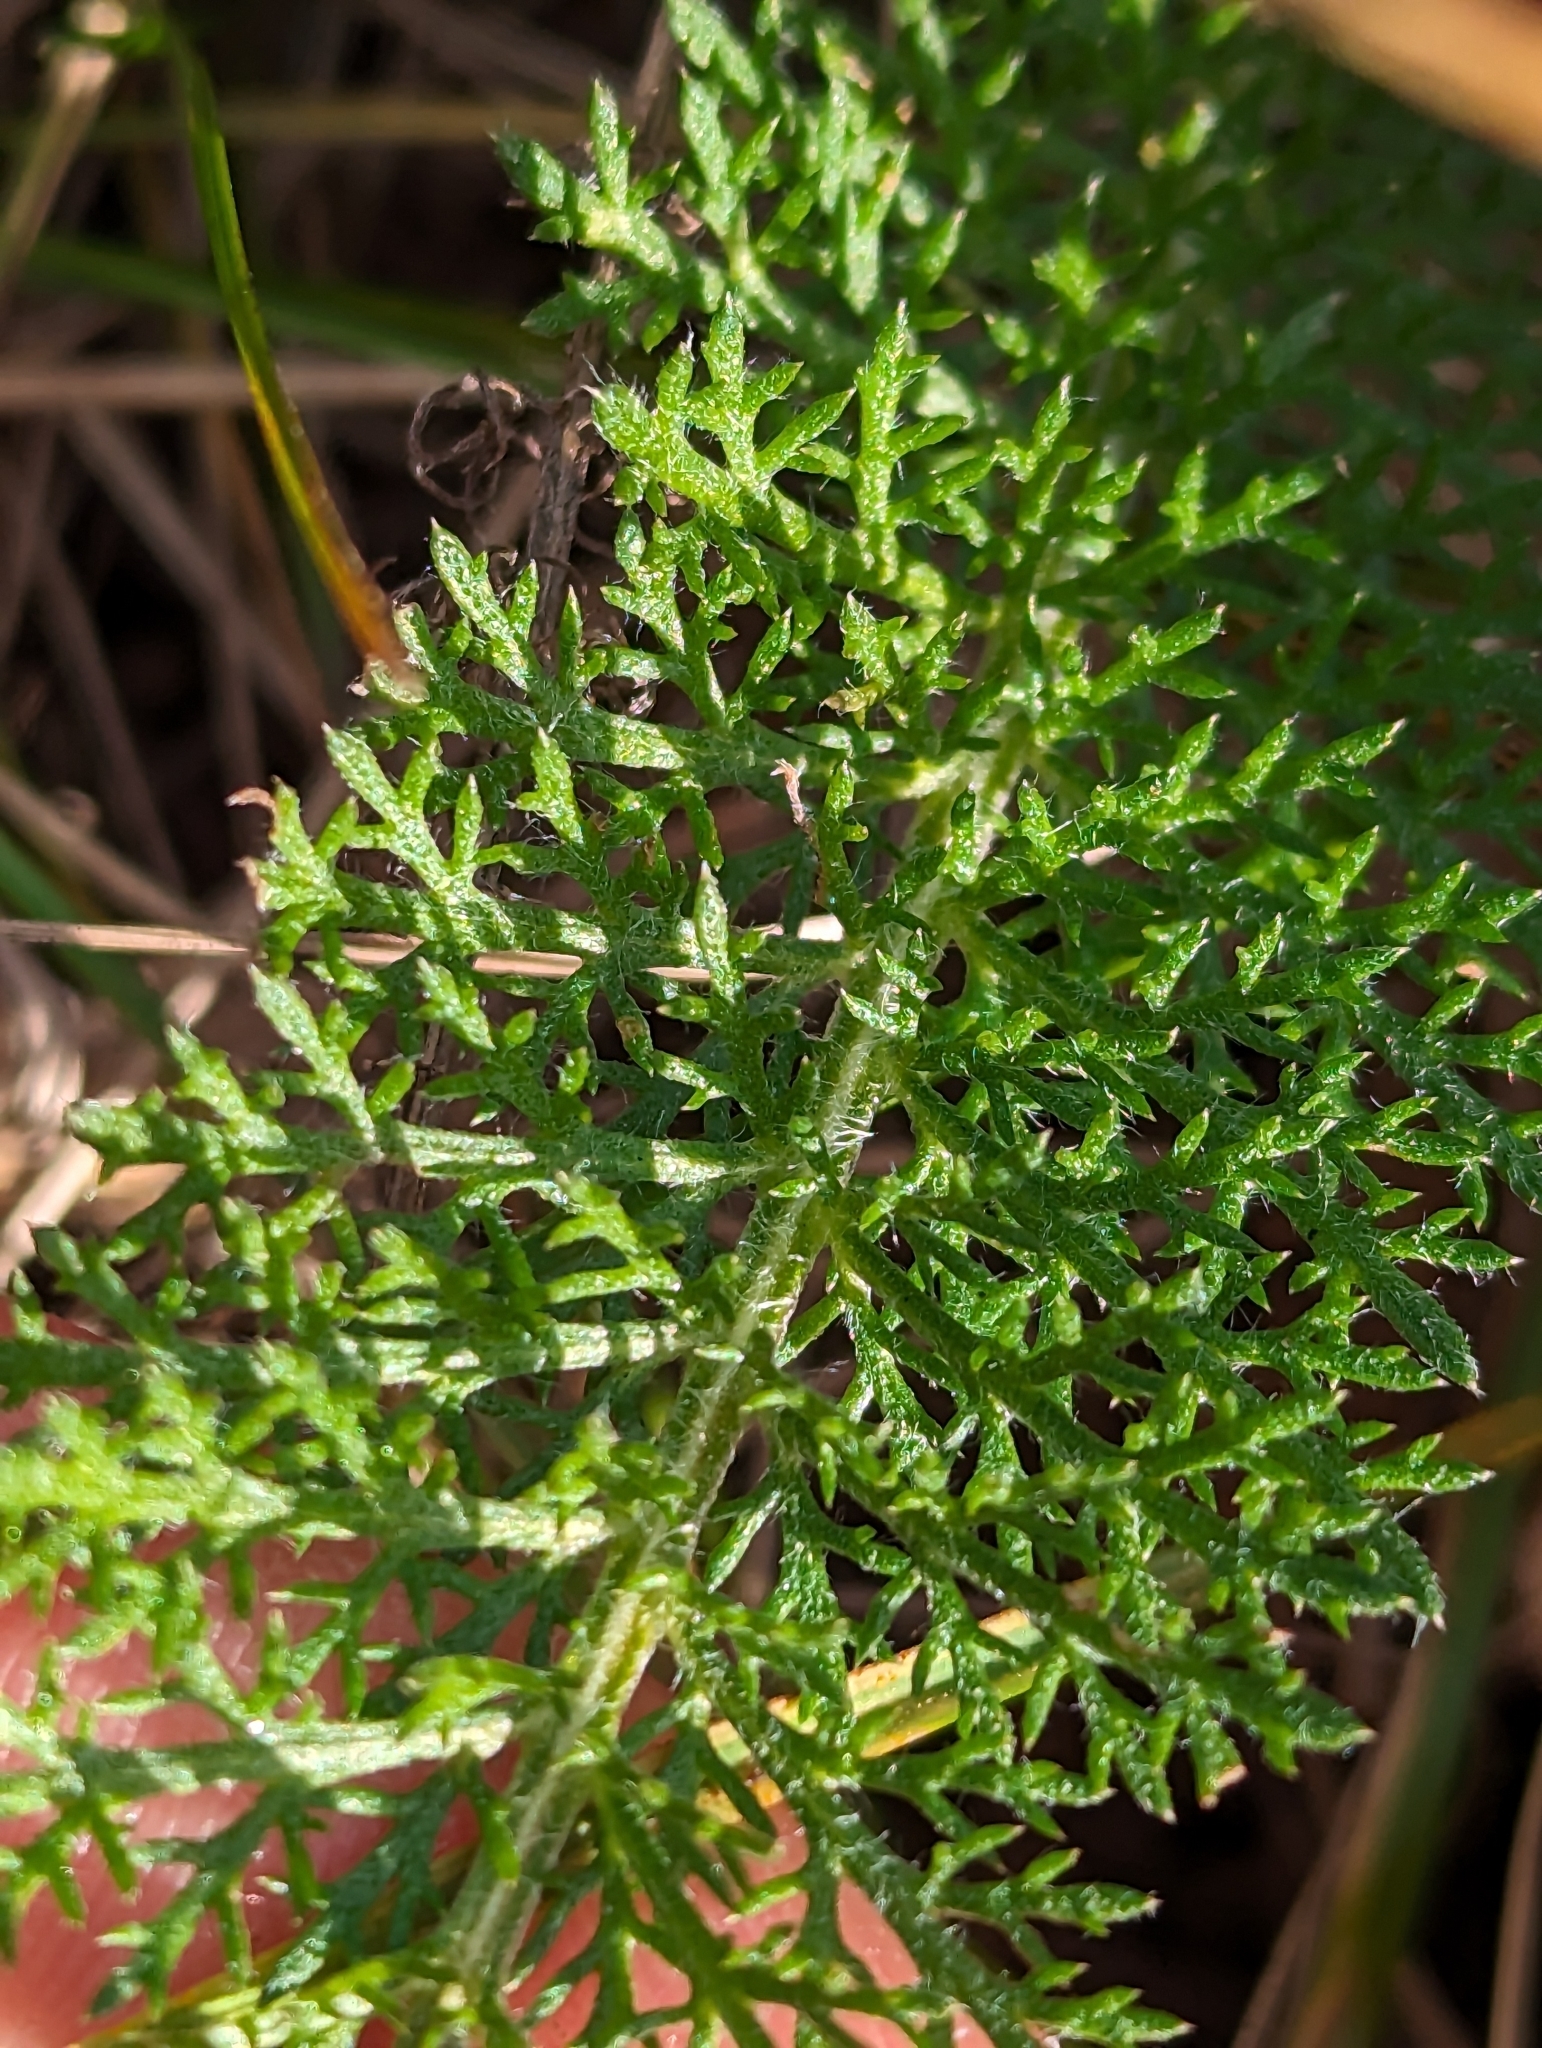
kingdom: Plantae
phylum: Tracheophyta
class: Magnoliopsida
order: Asterales
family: Asteraceae
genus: Achillea
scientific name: Achillea millefolium
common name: Yarrow
